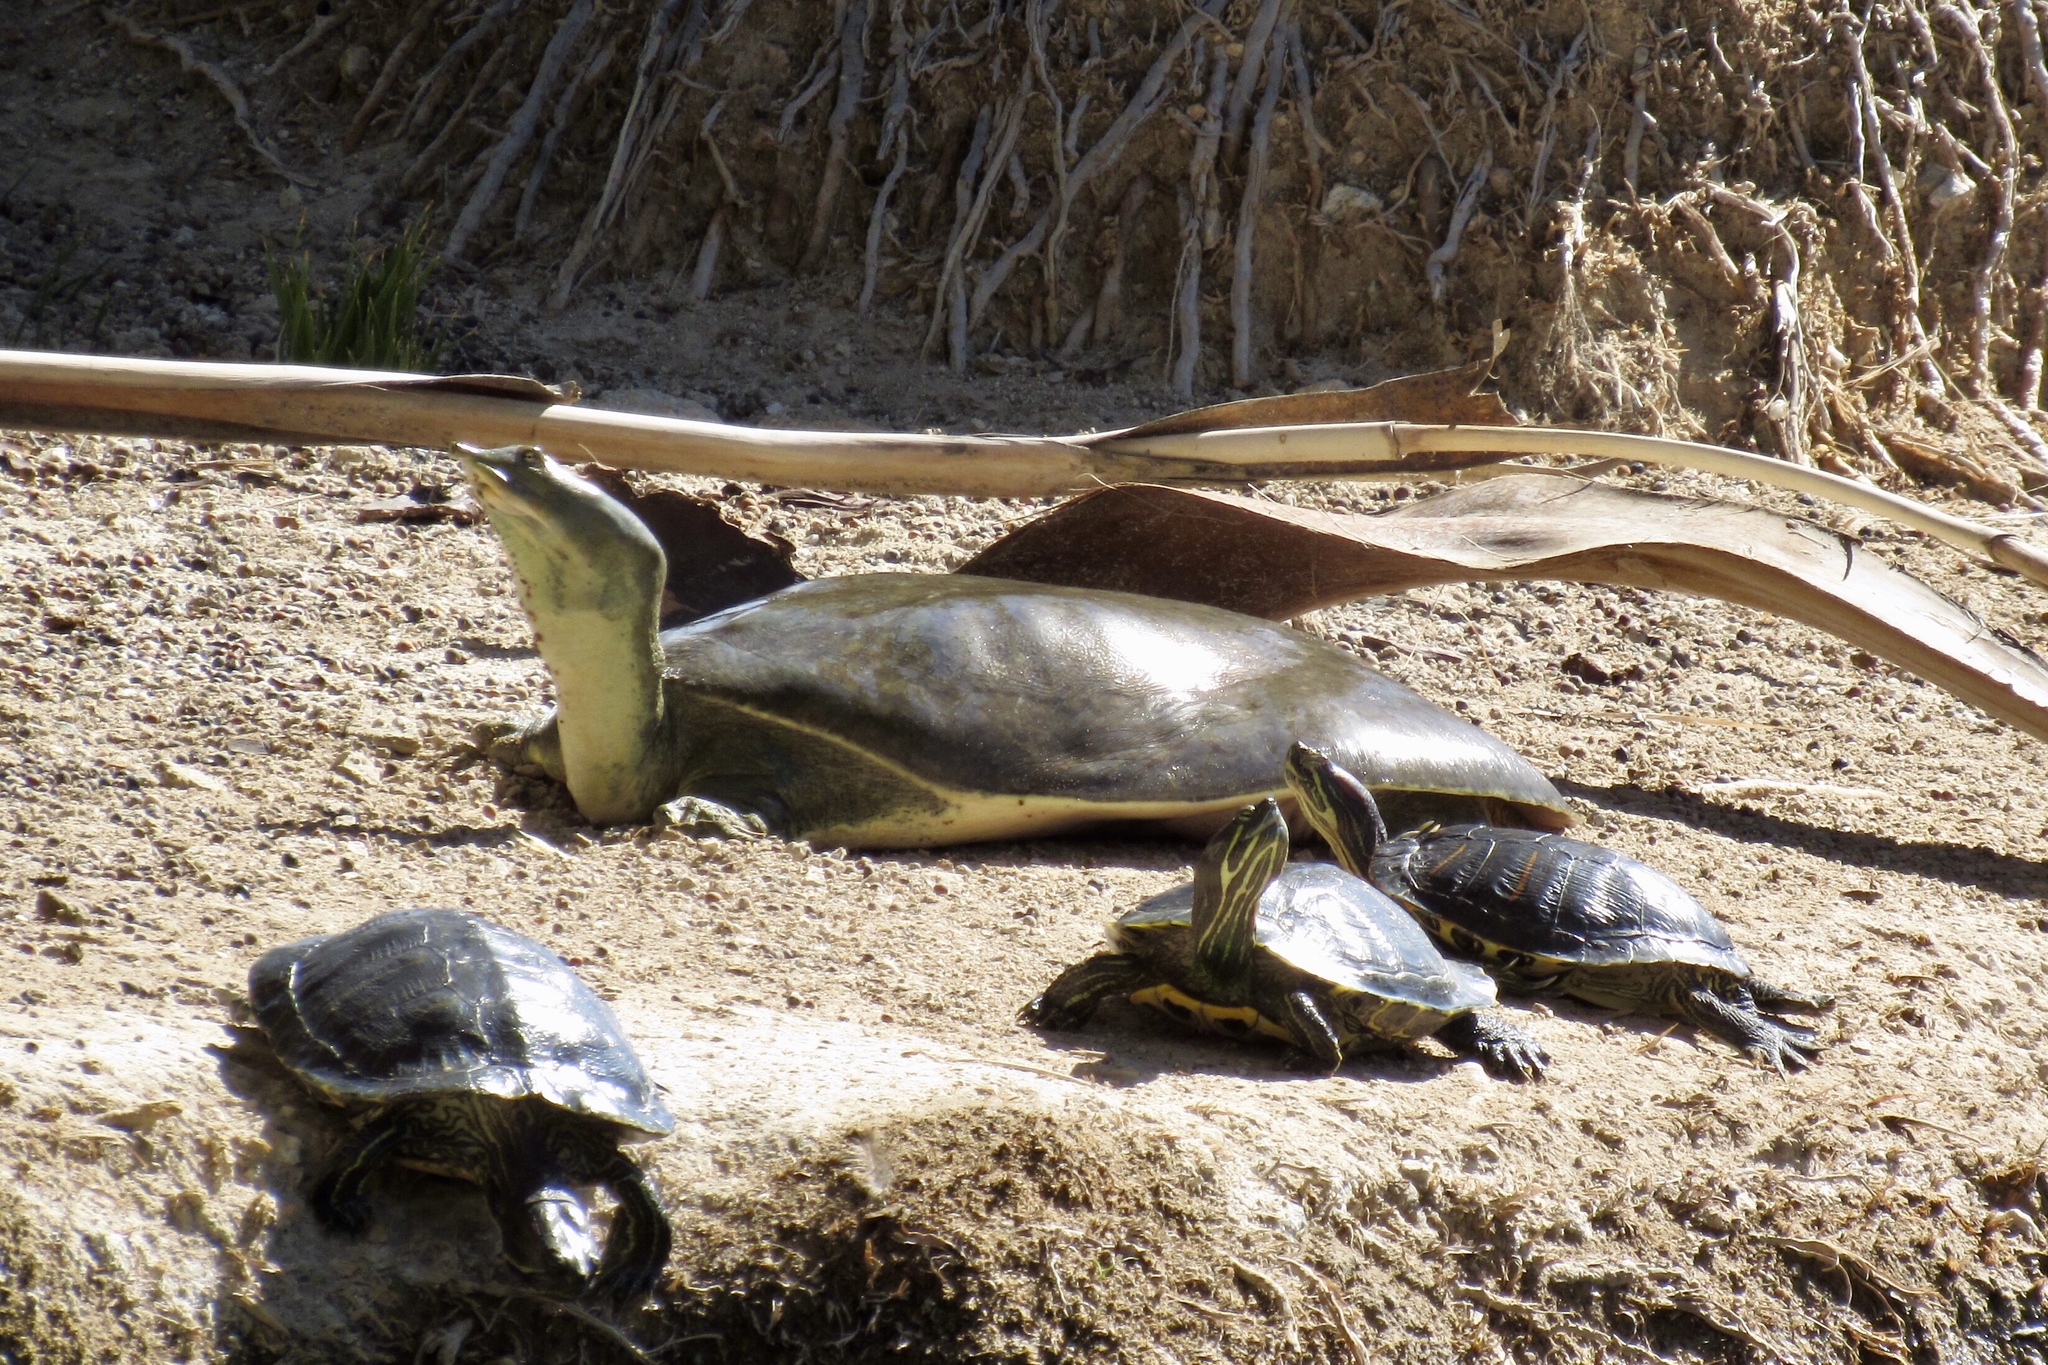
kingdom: Animalia
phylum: Chordata
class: Testudines
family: Trionychidae
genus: Apalone
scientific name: Apalone spinifera
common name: Spiny softshell turtle
